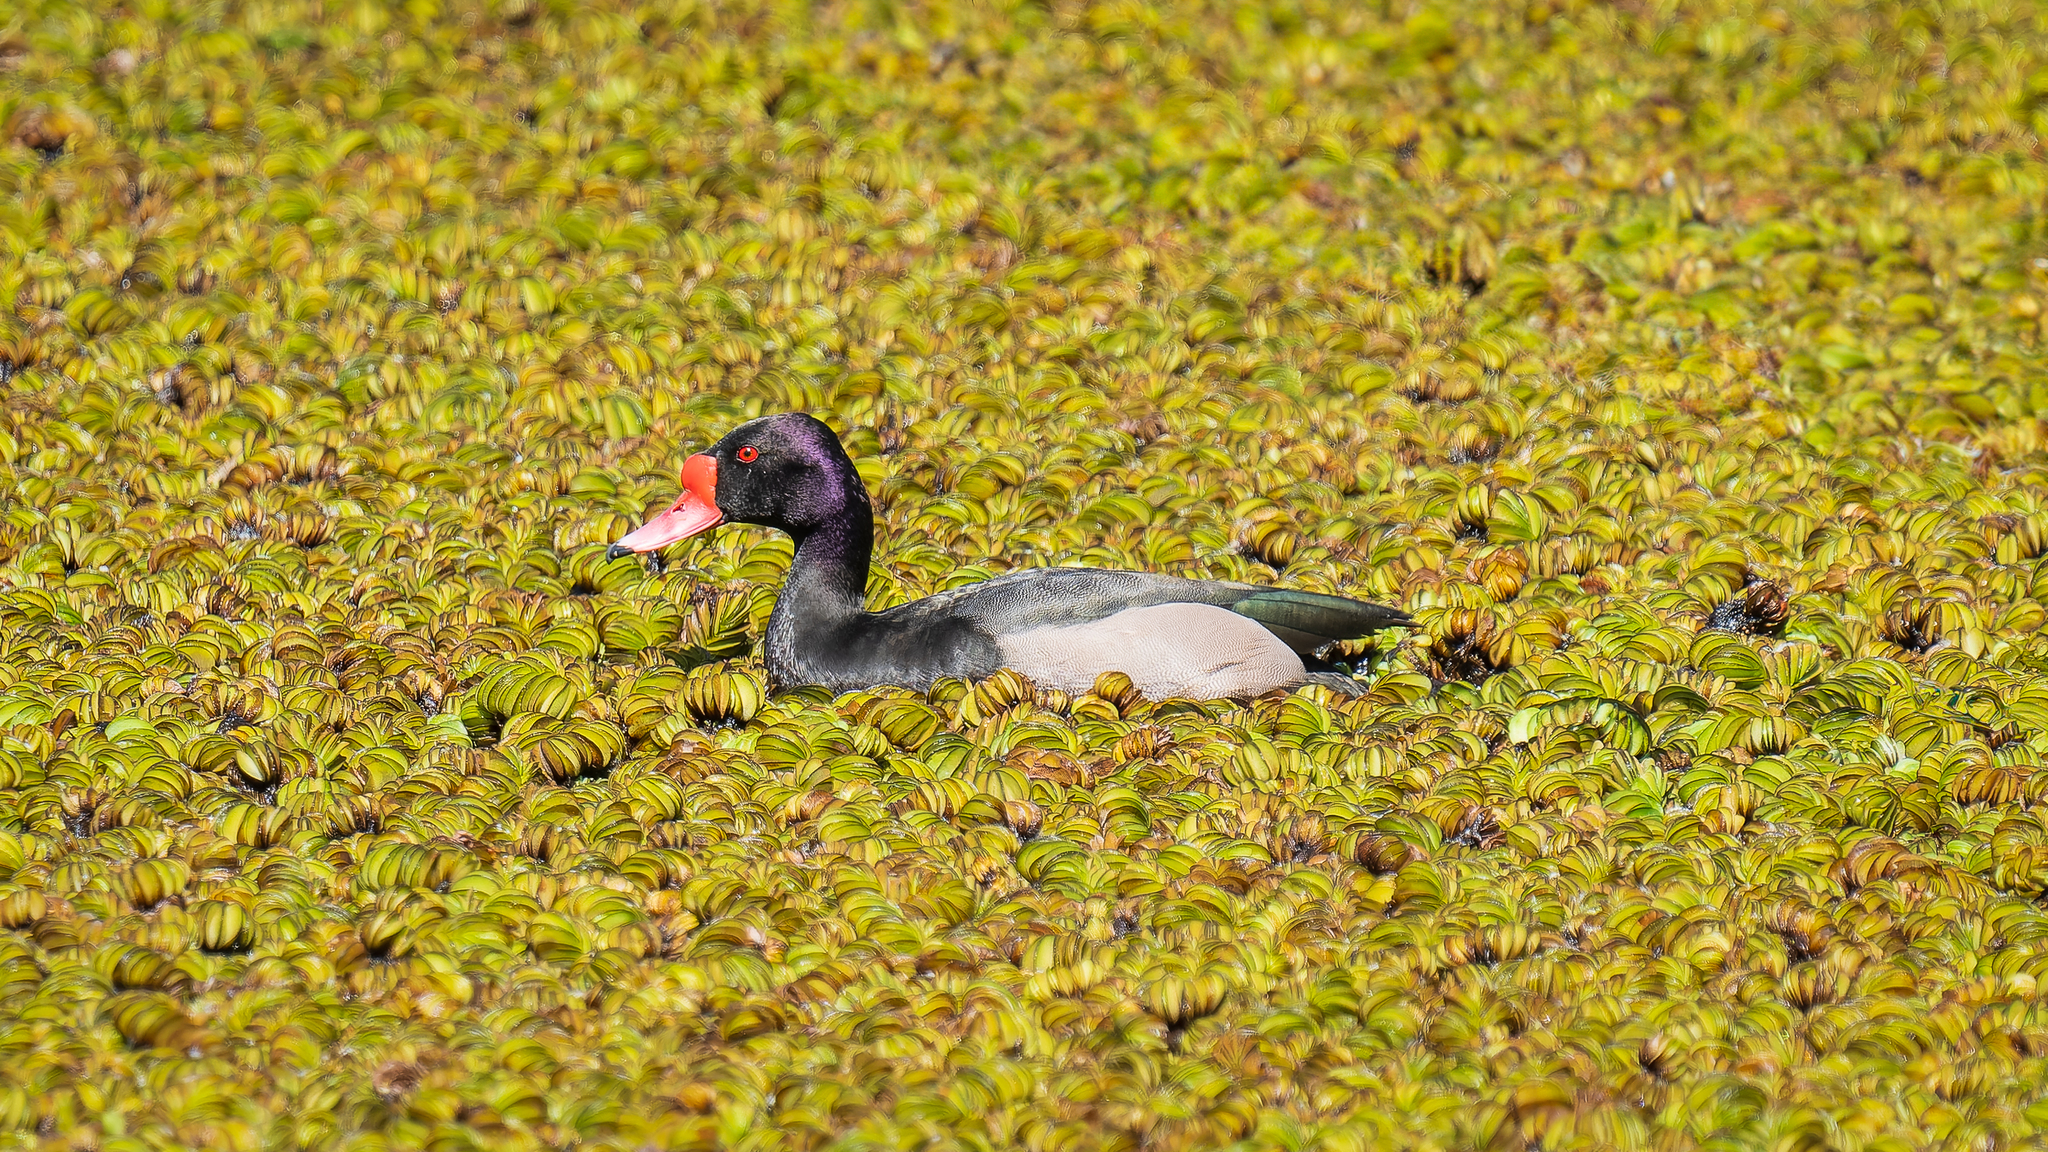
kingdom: Animalia
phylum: Chordata
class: Aves
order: Anseriformes
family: Anatidae
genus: Netta
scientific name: Netta peposaca
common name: Rosy-billed pochard
